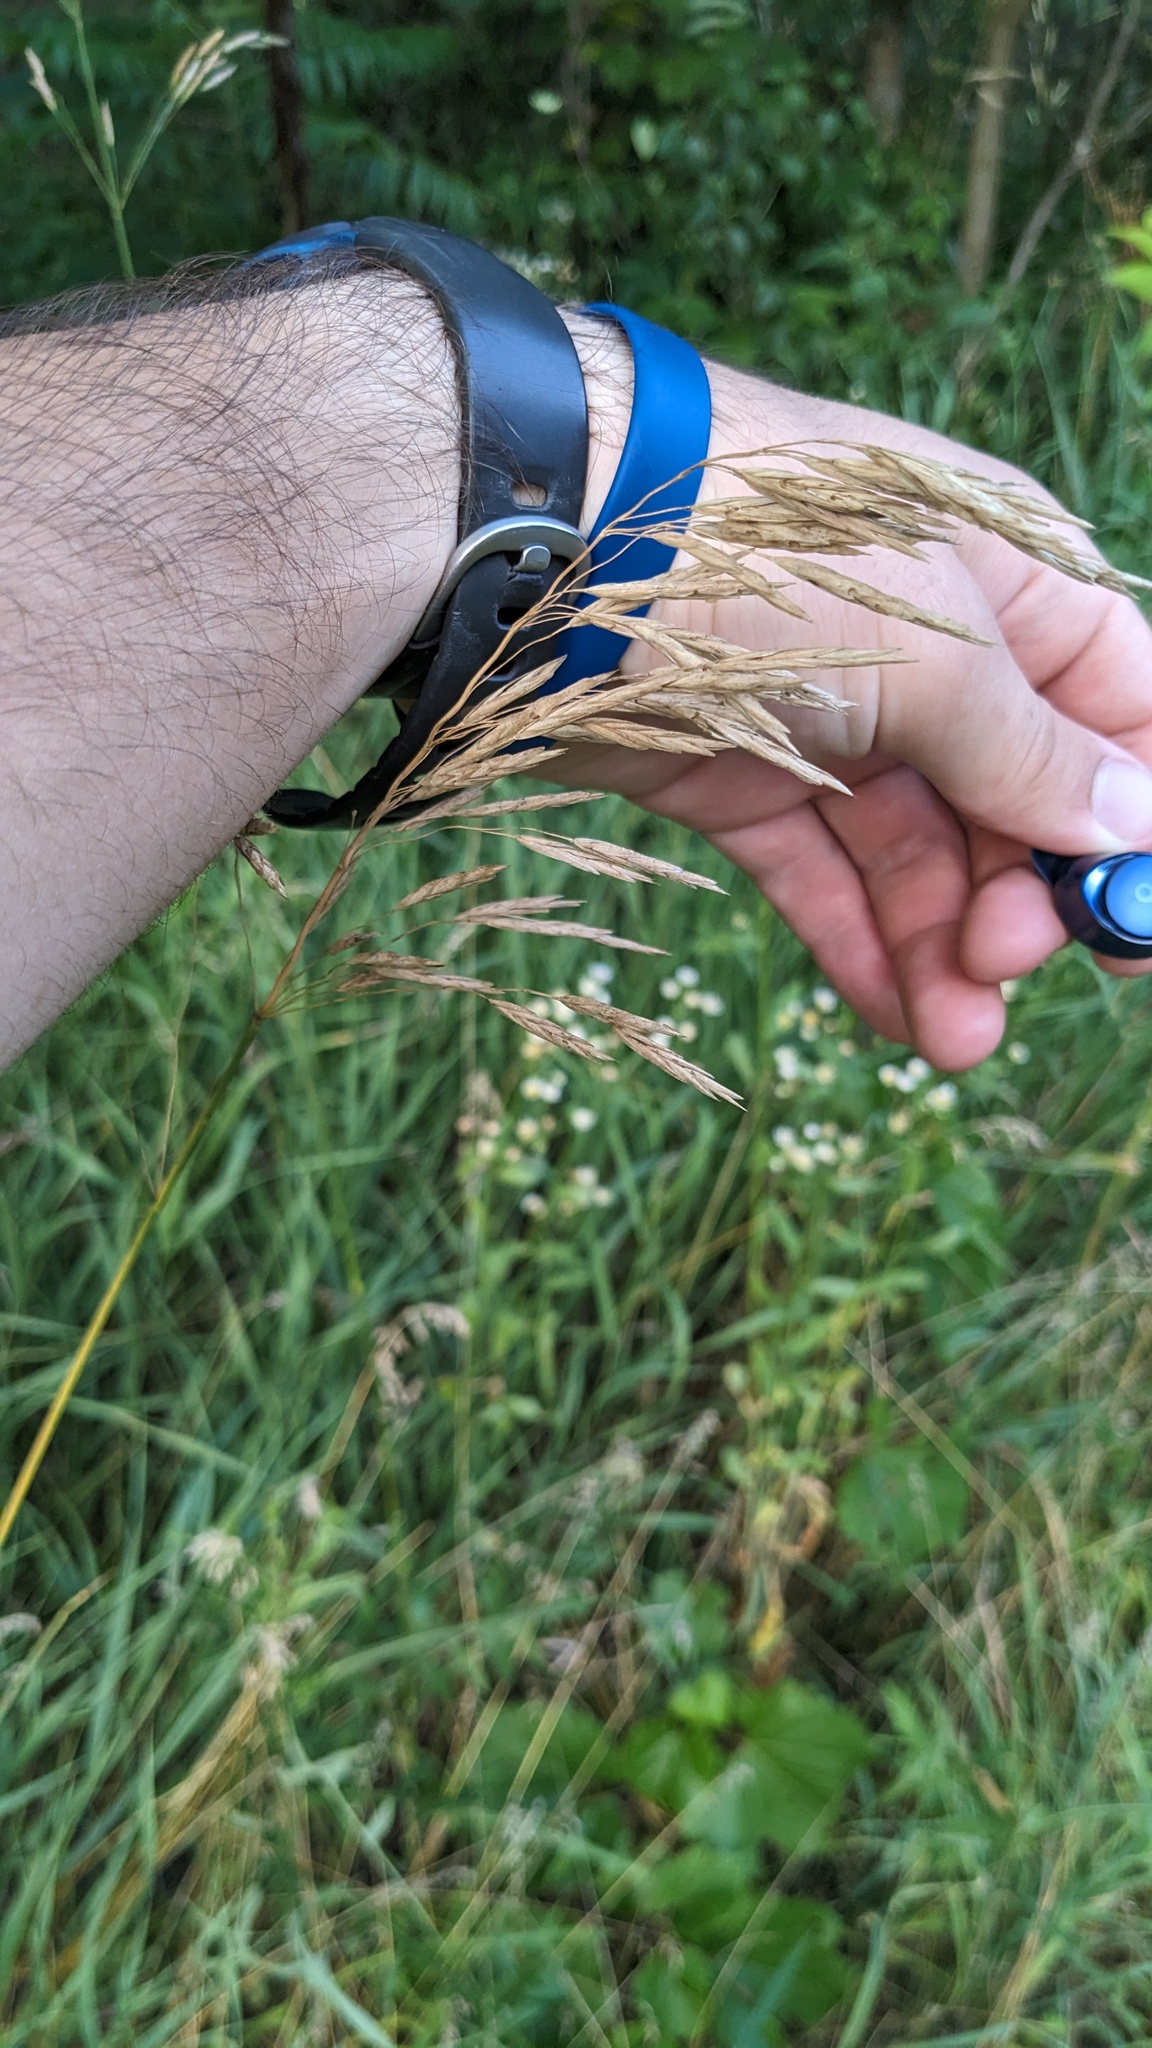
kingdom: Plantae
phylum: Tracheophyta
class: Liliopsida
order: Poales
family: Poaceae
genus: Bromus
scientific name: Bromus inermis
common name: Smooth brome
